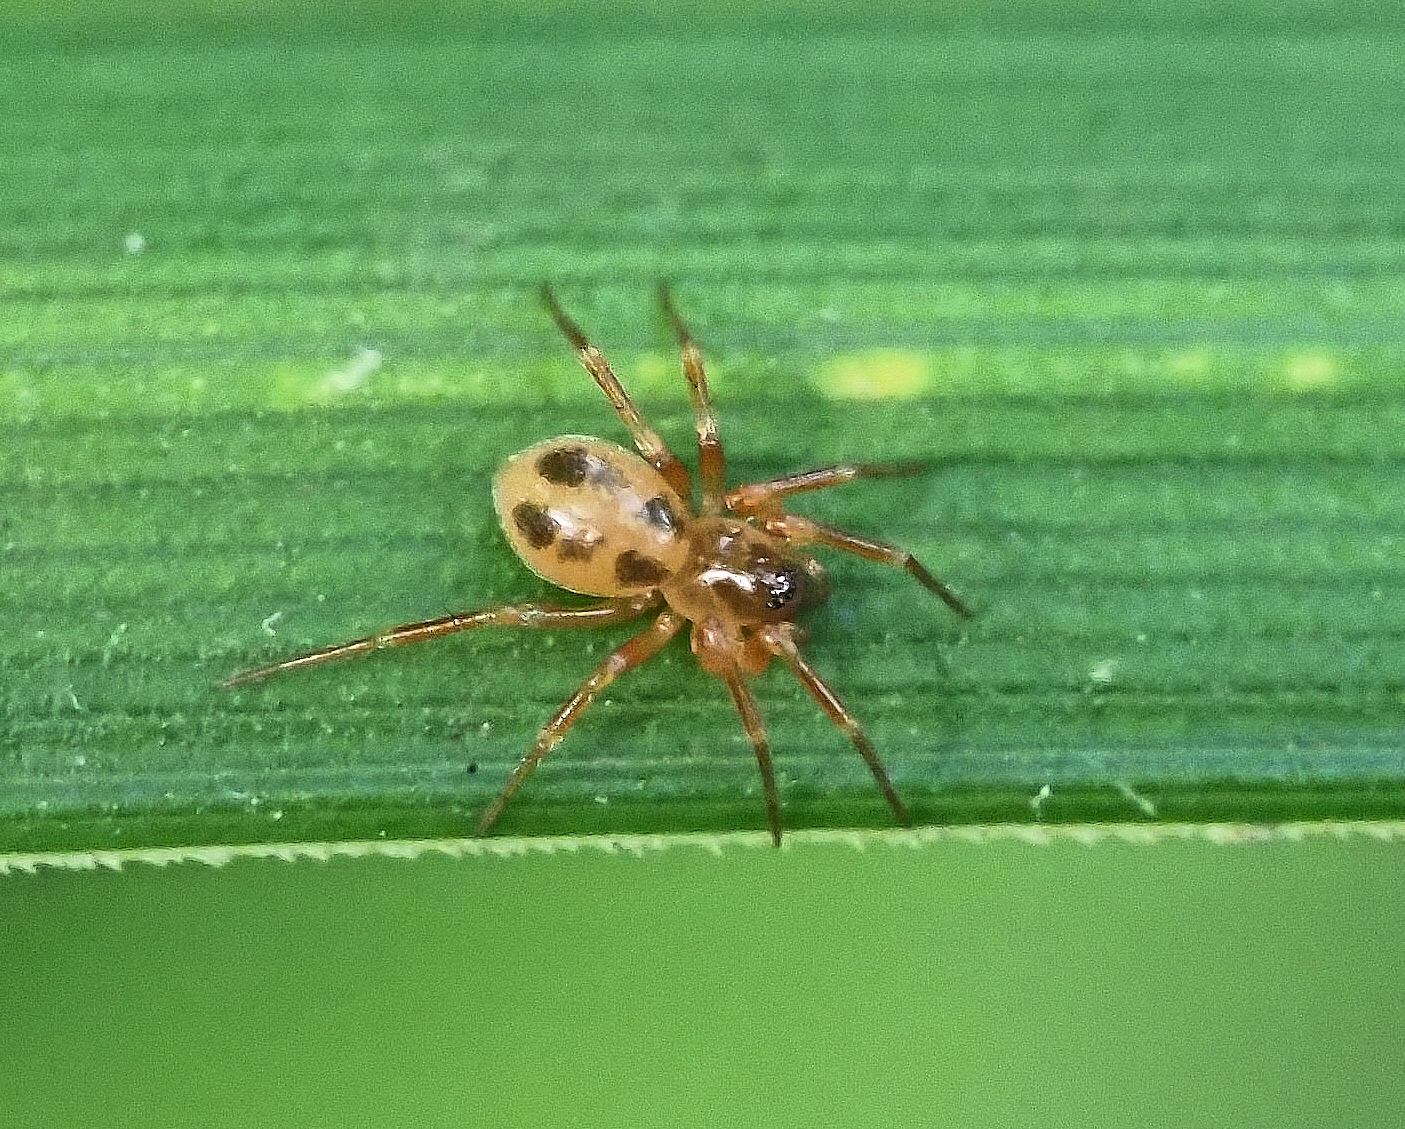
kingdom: Animalia
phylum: Arthropoda
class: Arachnida
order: Araneae
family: Linyphiidae
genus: Gongylidium
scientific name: Gongylidium rufipes
